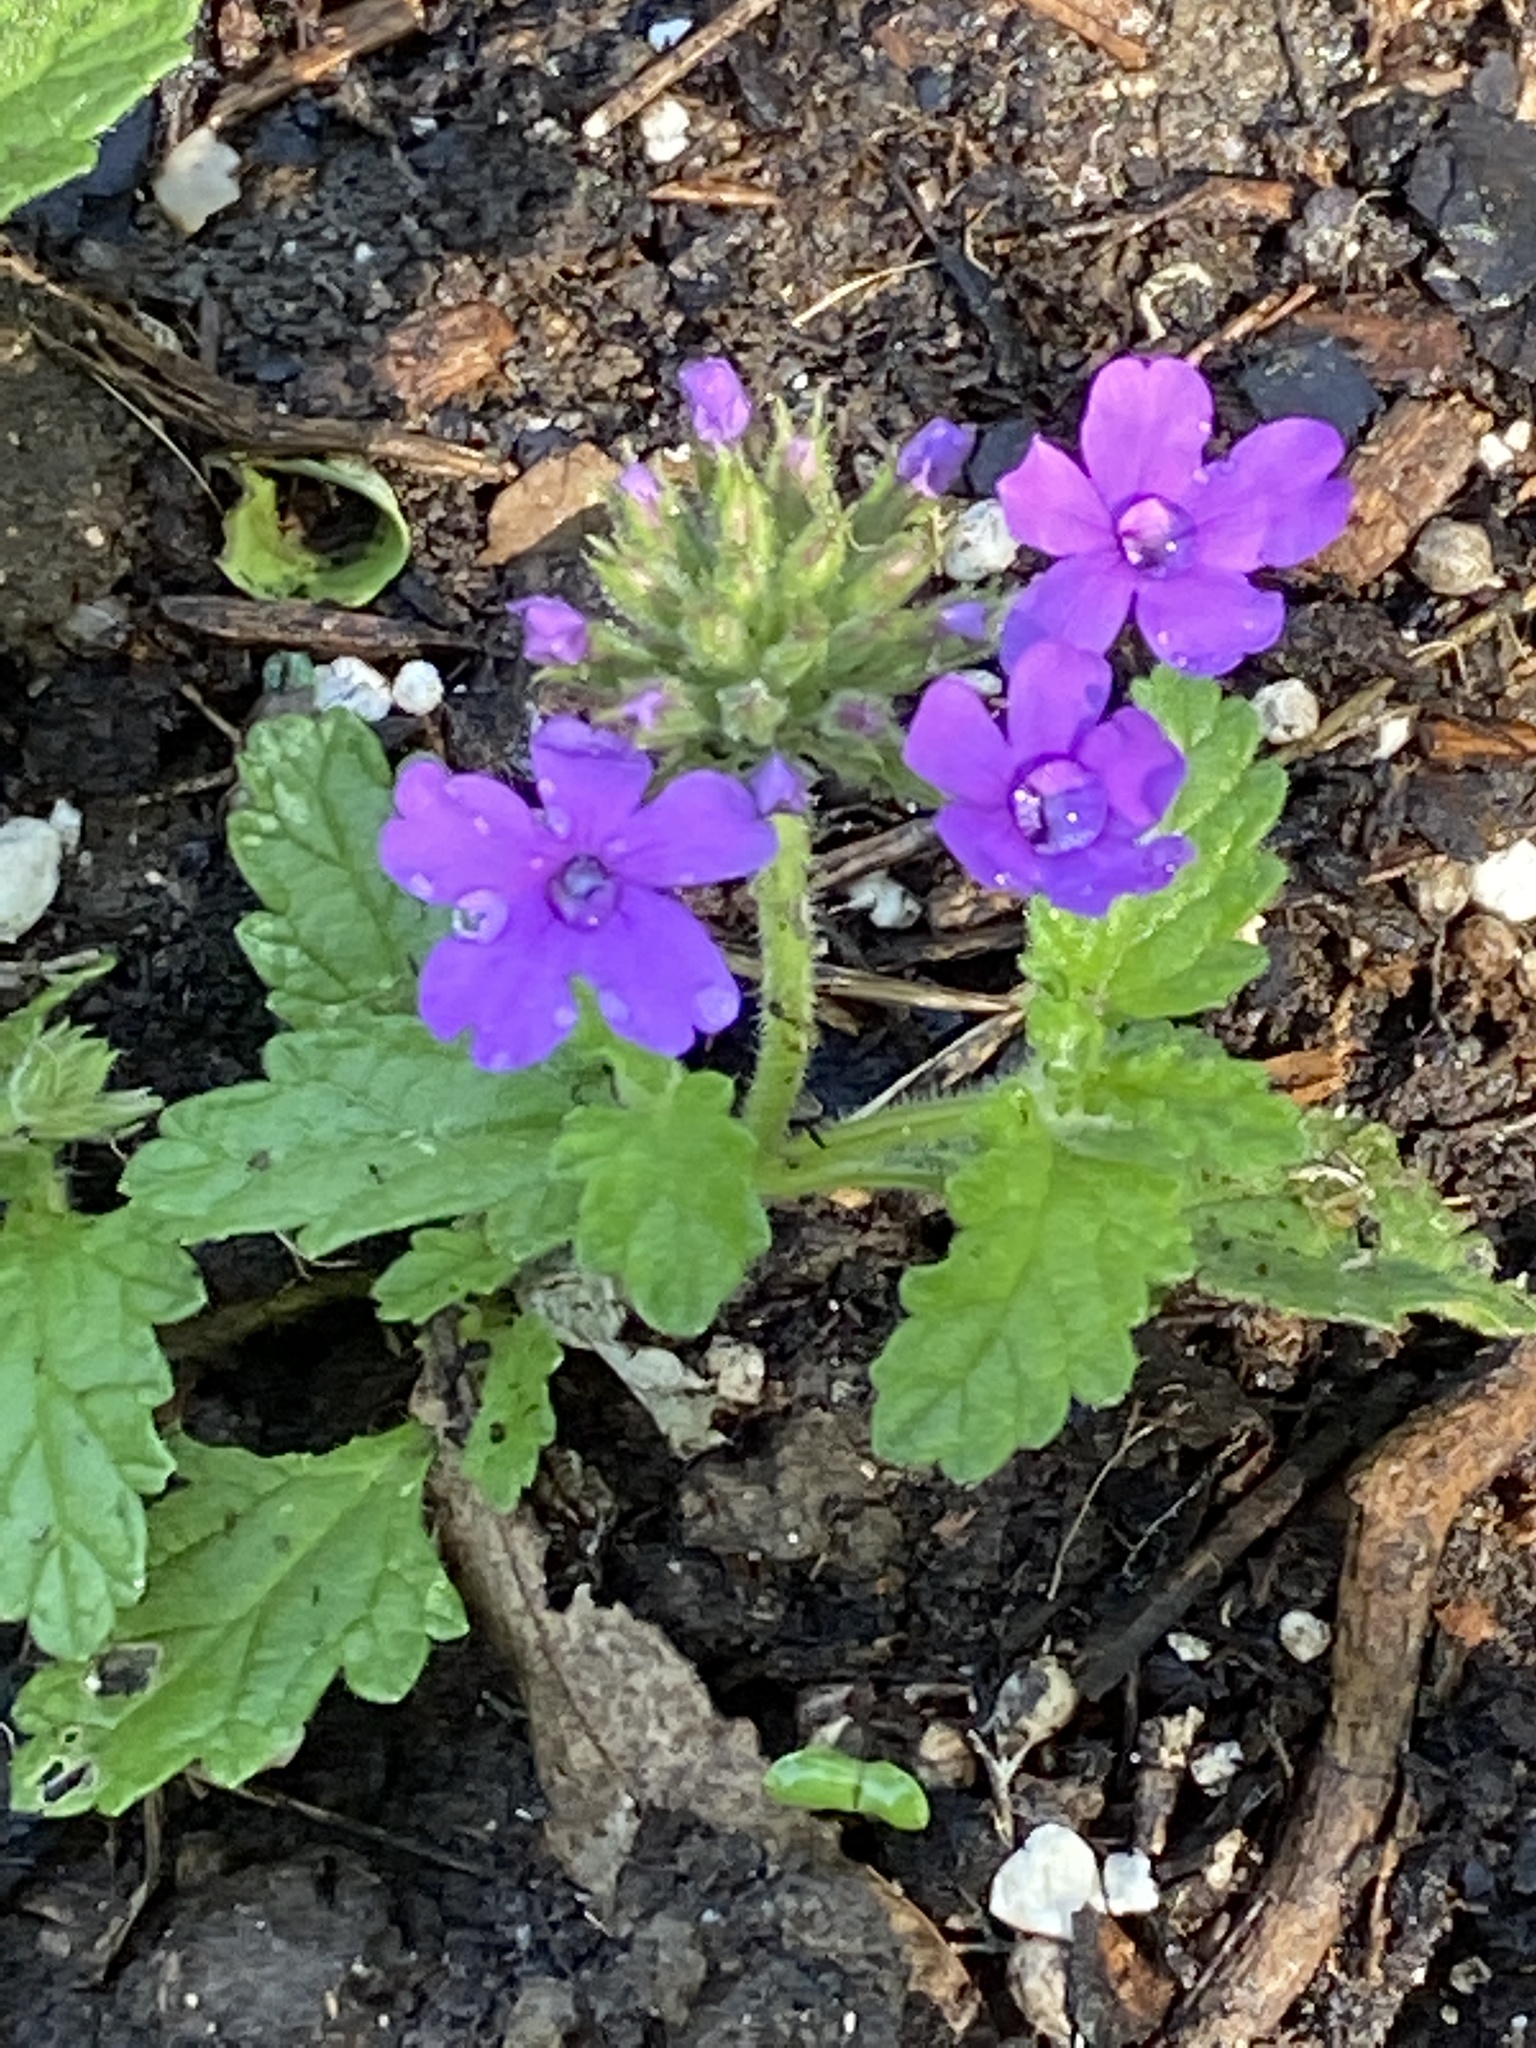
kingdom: Plantae
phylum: Tracheophyta
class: Magnoliopsida
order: Lamiales
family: Verbenaceae
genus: Verbena
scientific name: Verbena pumila
